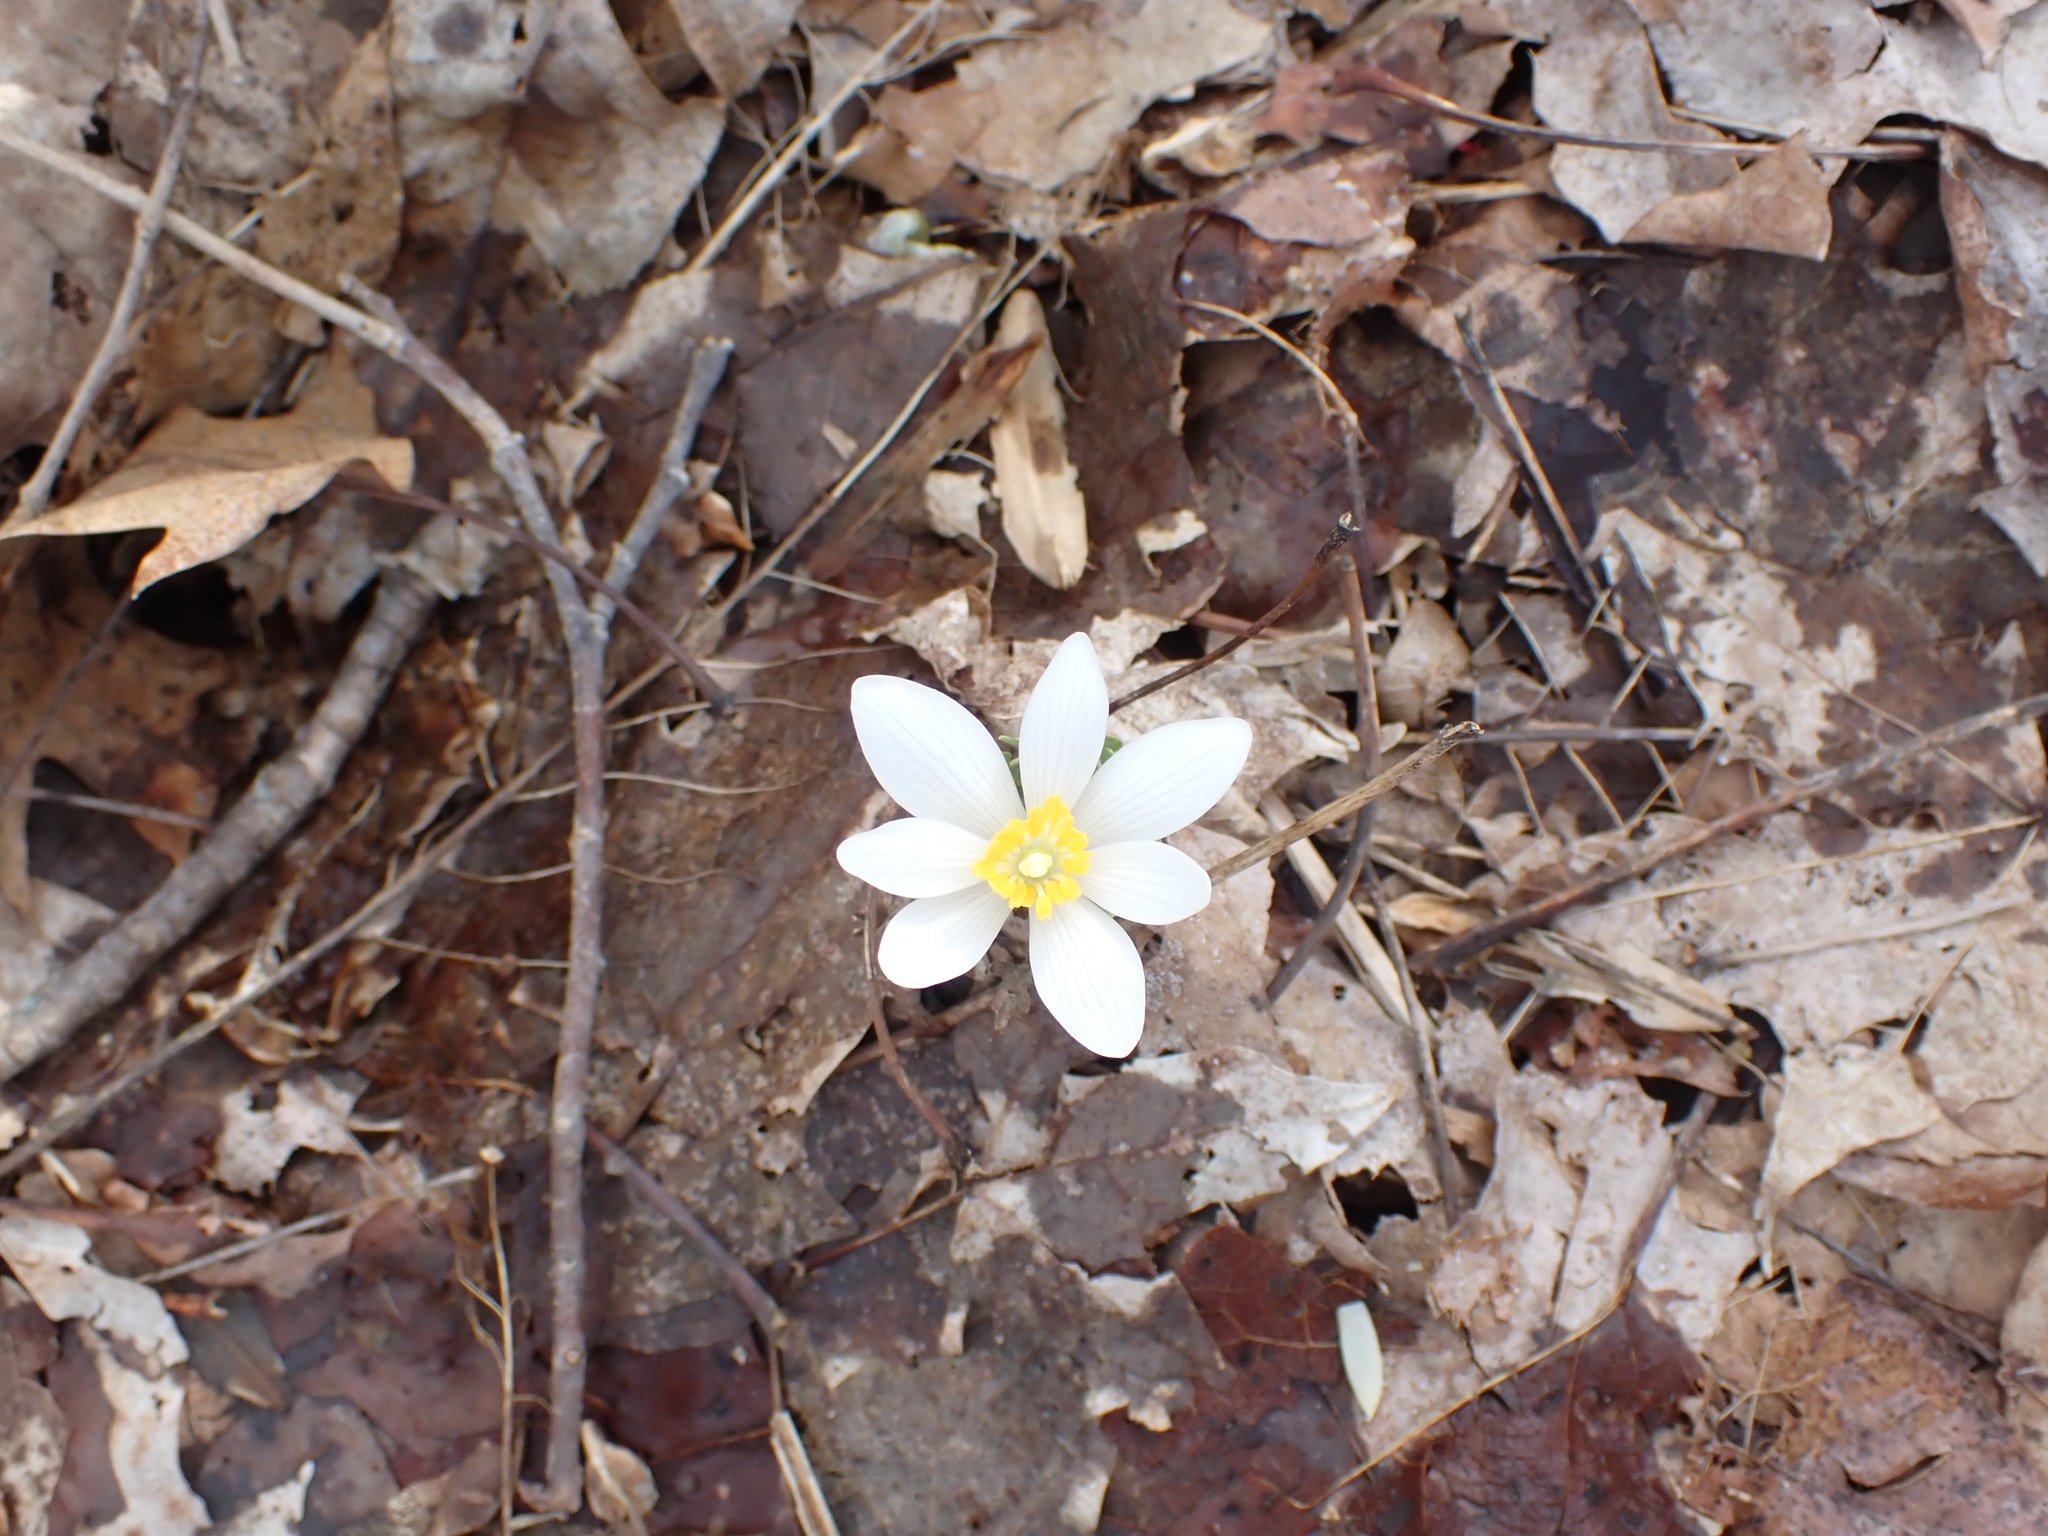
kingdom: Plantae
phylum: Tracheophyta
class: Magnoliopsida
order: Ranunculales
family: Papaveraceae
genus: Sanguinaria
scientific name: Sanguinaria canadensis
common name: Bloodroot
